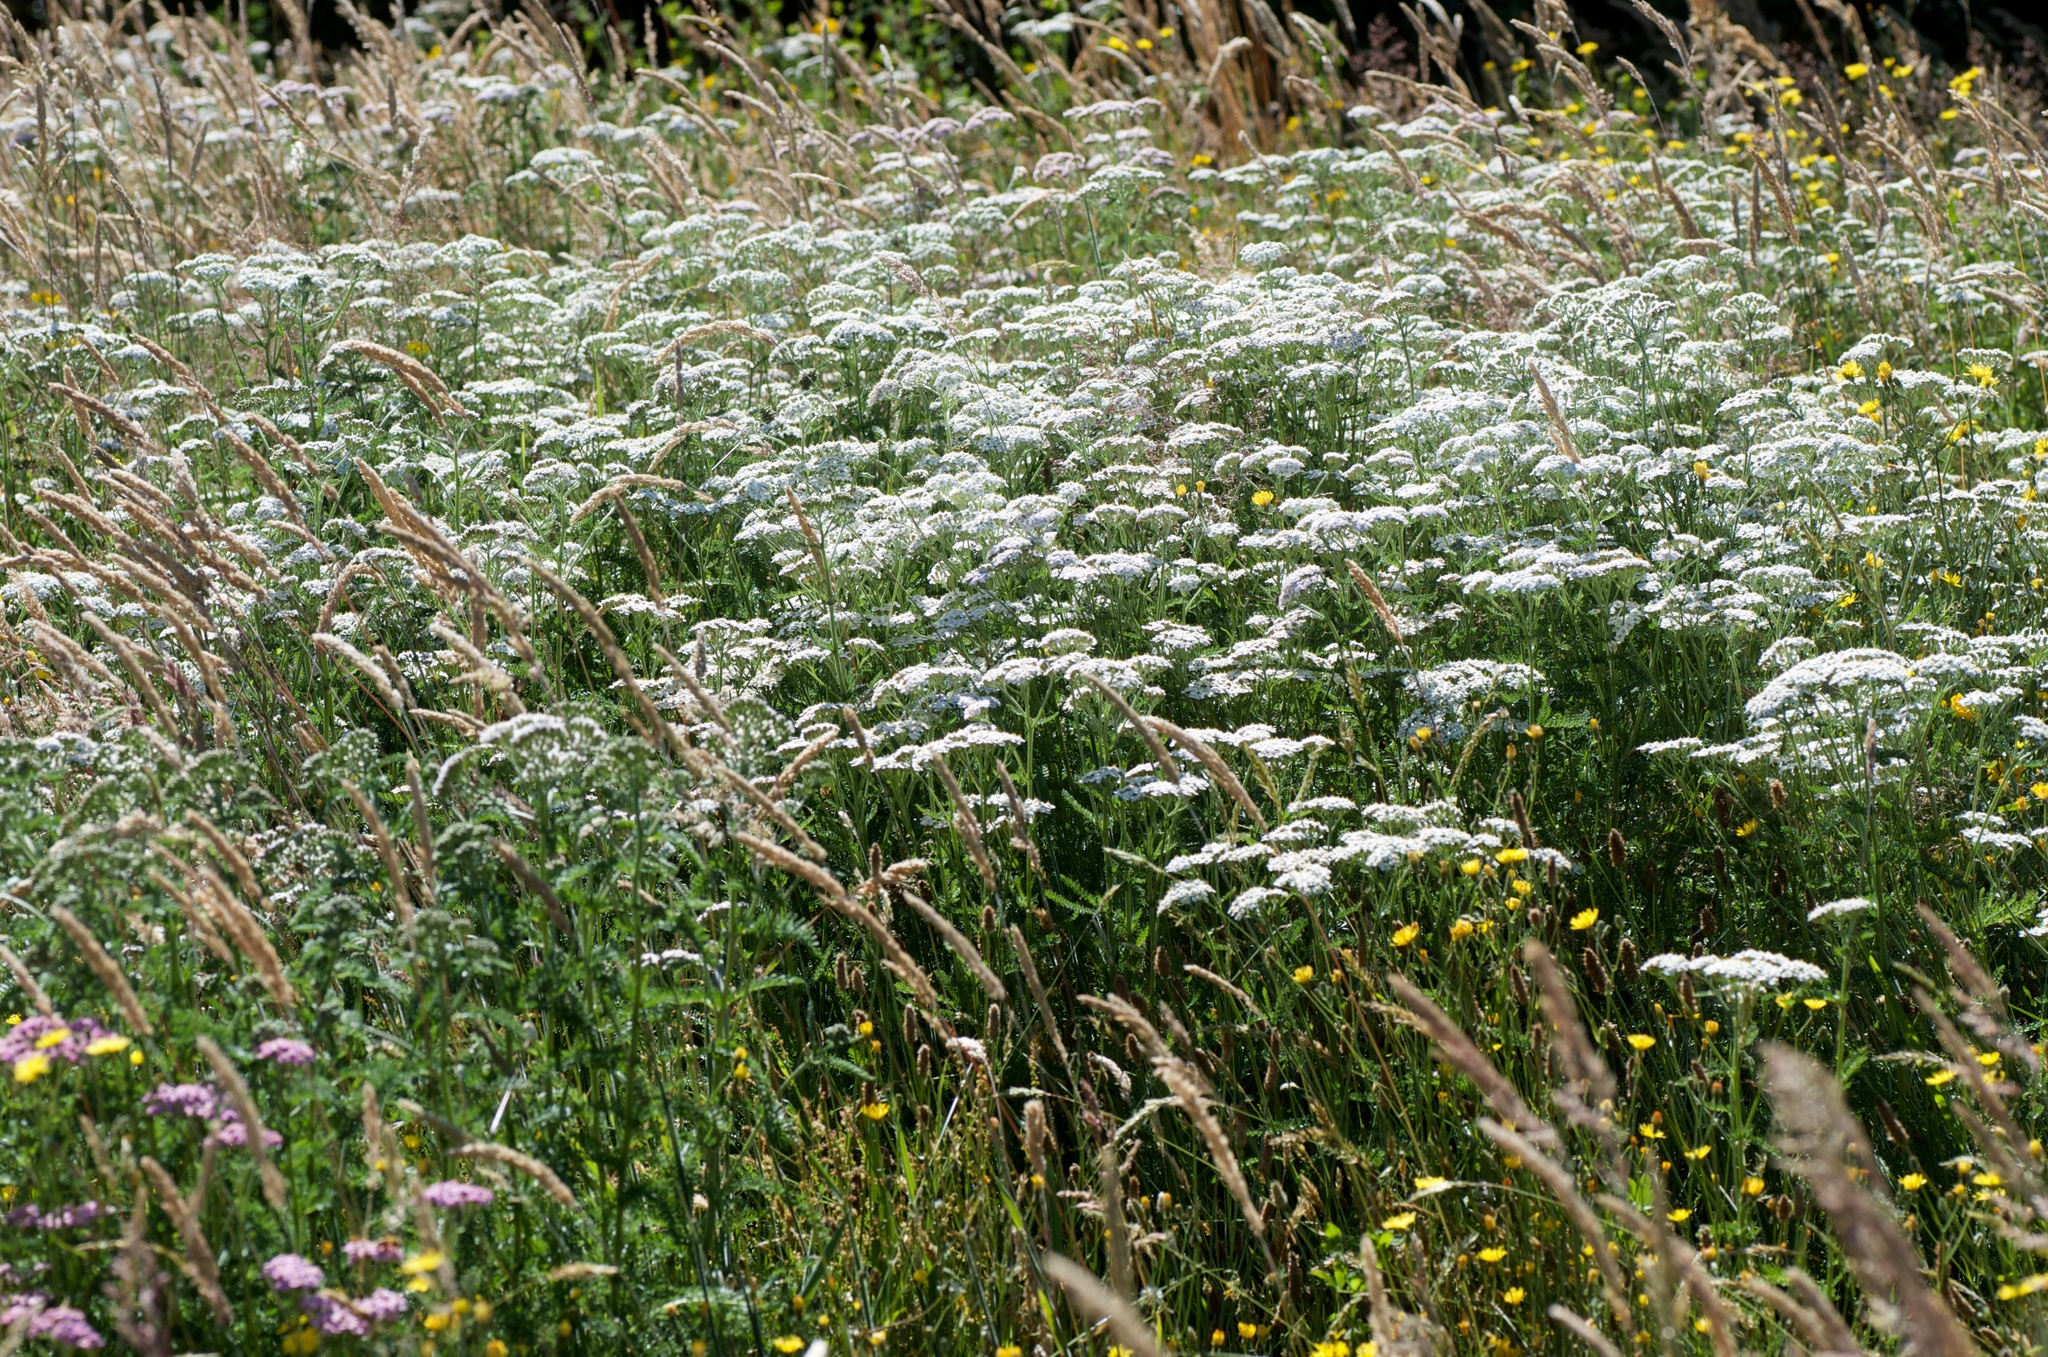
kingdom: Plantae
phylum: Tracheophyta
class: Magnoliopsida
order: Asterales
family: Asteraceae
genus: Achillea
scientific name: Achillea millefolium
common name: Yarrow
